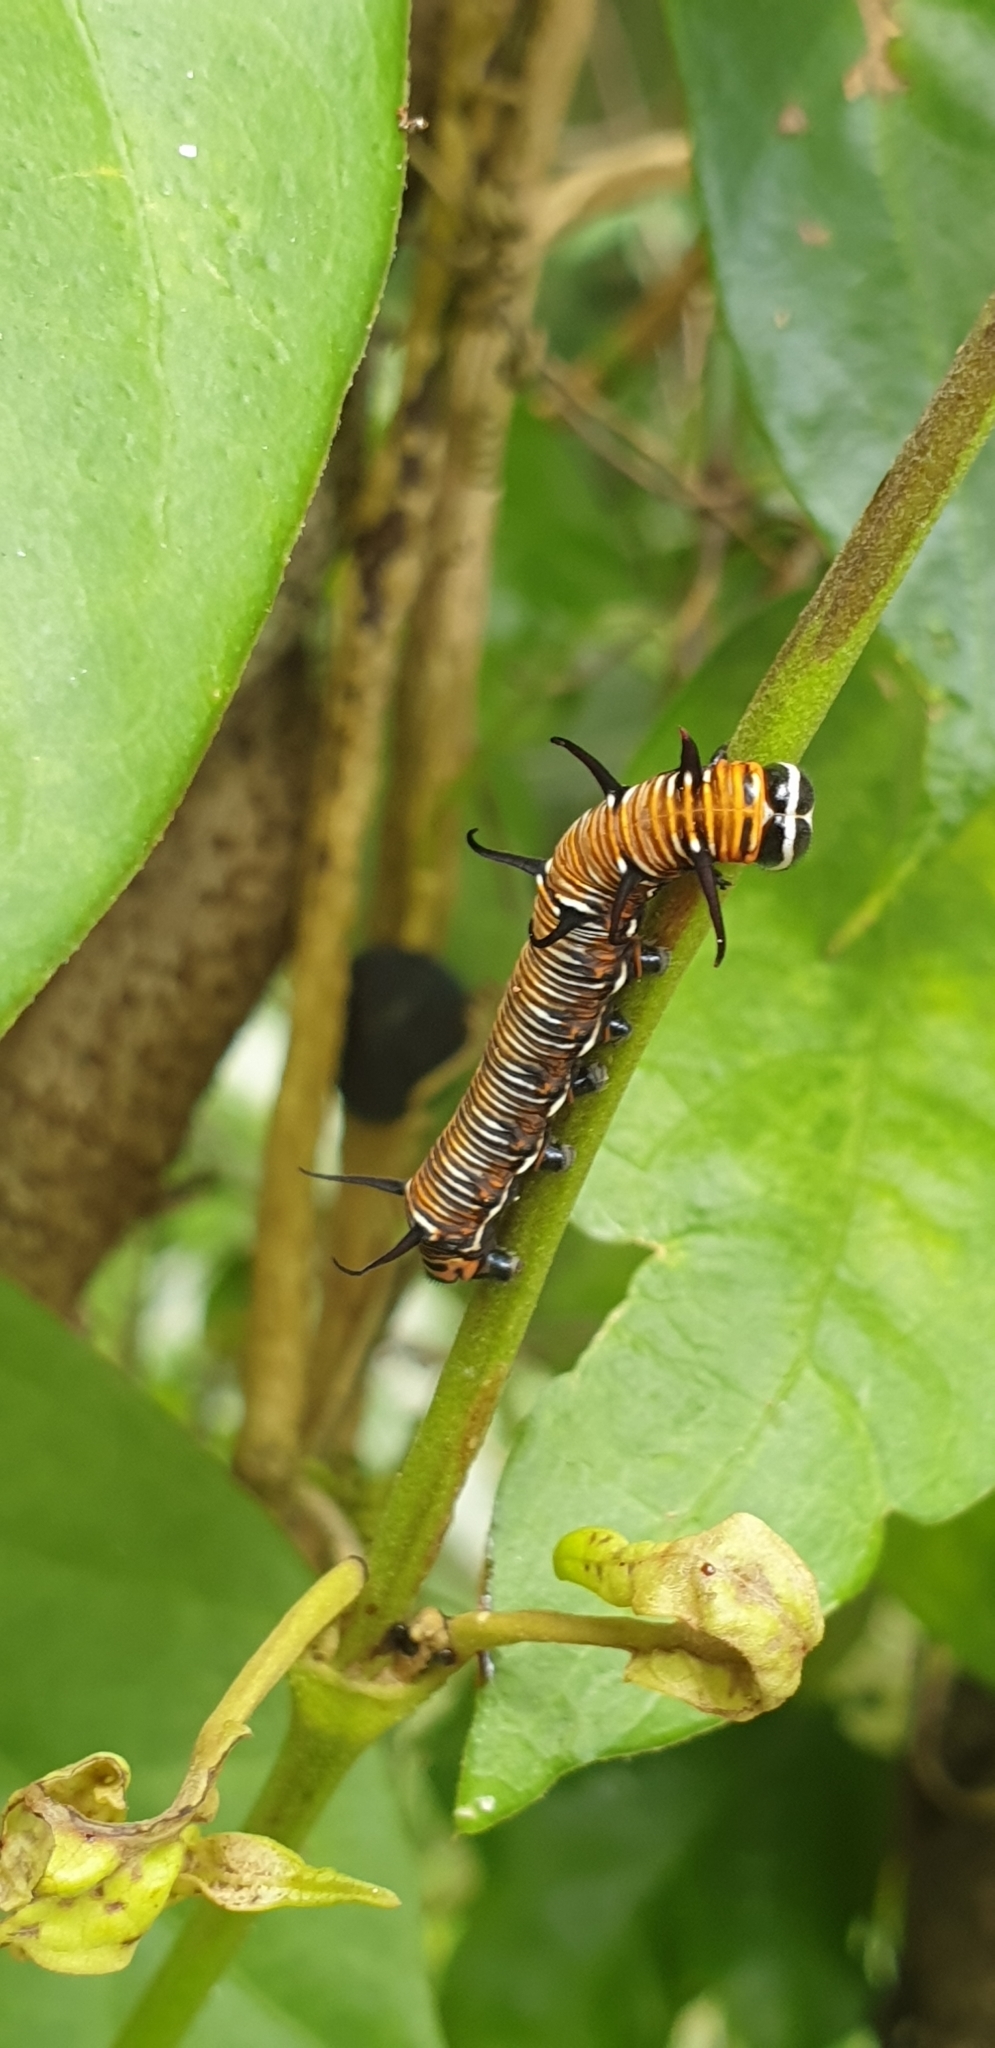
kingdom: Animalia
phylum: Arthropoda
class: Insecta
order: Lepidoptera
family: Nymphalidae
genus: Euploea
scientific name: Euploea core
